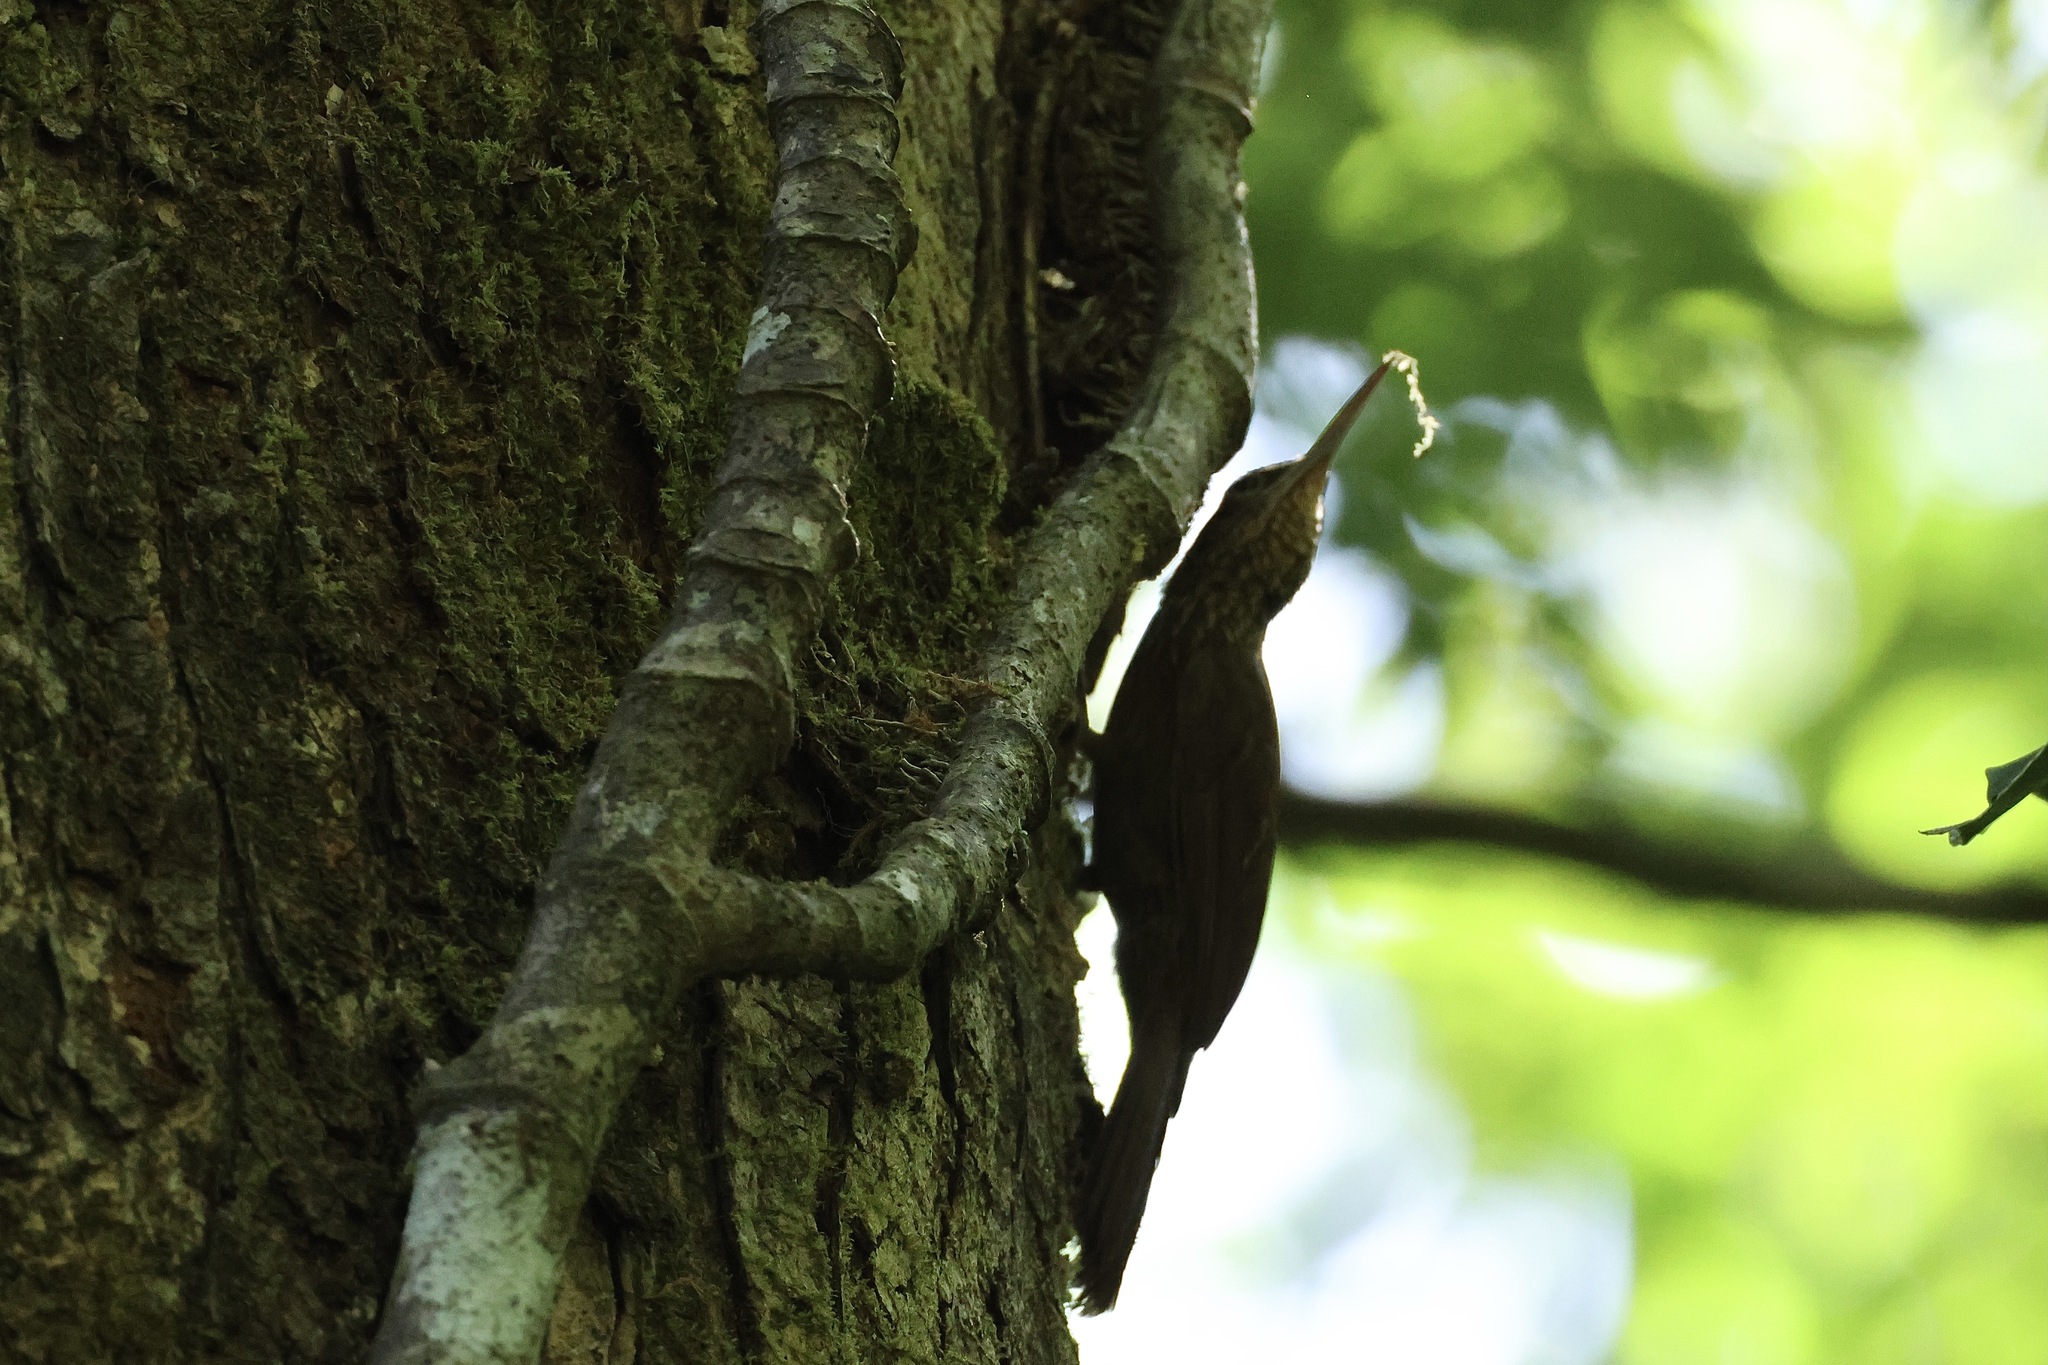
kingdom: Animalia
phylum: Chordata
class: Aves
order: Passeriformes
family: Furnariidae
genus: Xiphorhynchus
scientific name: Xiphorhynchus susurrans
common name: Cocoa woodcreeper
